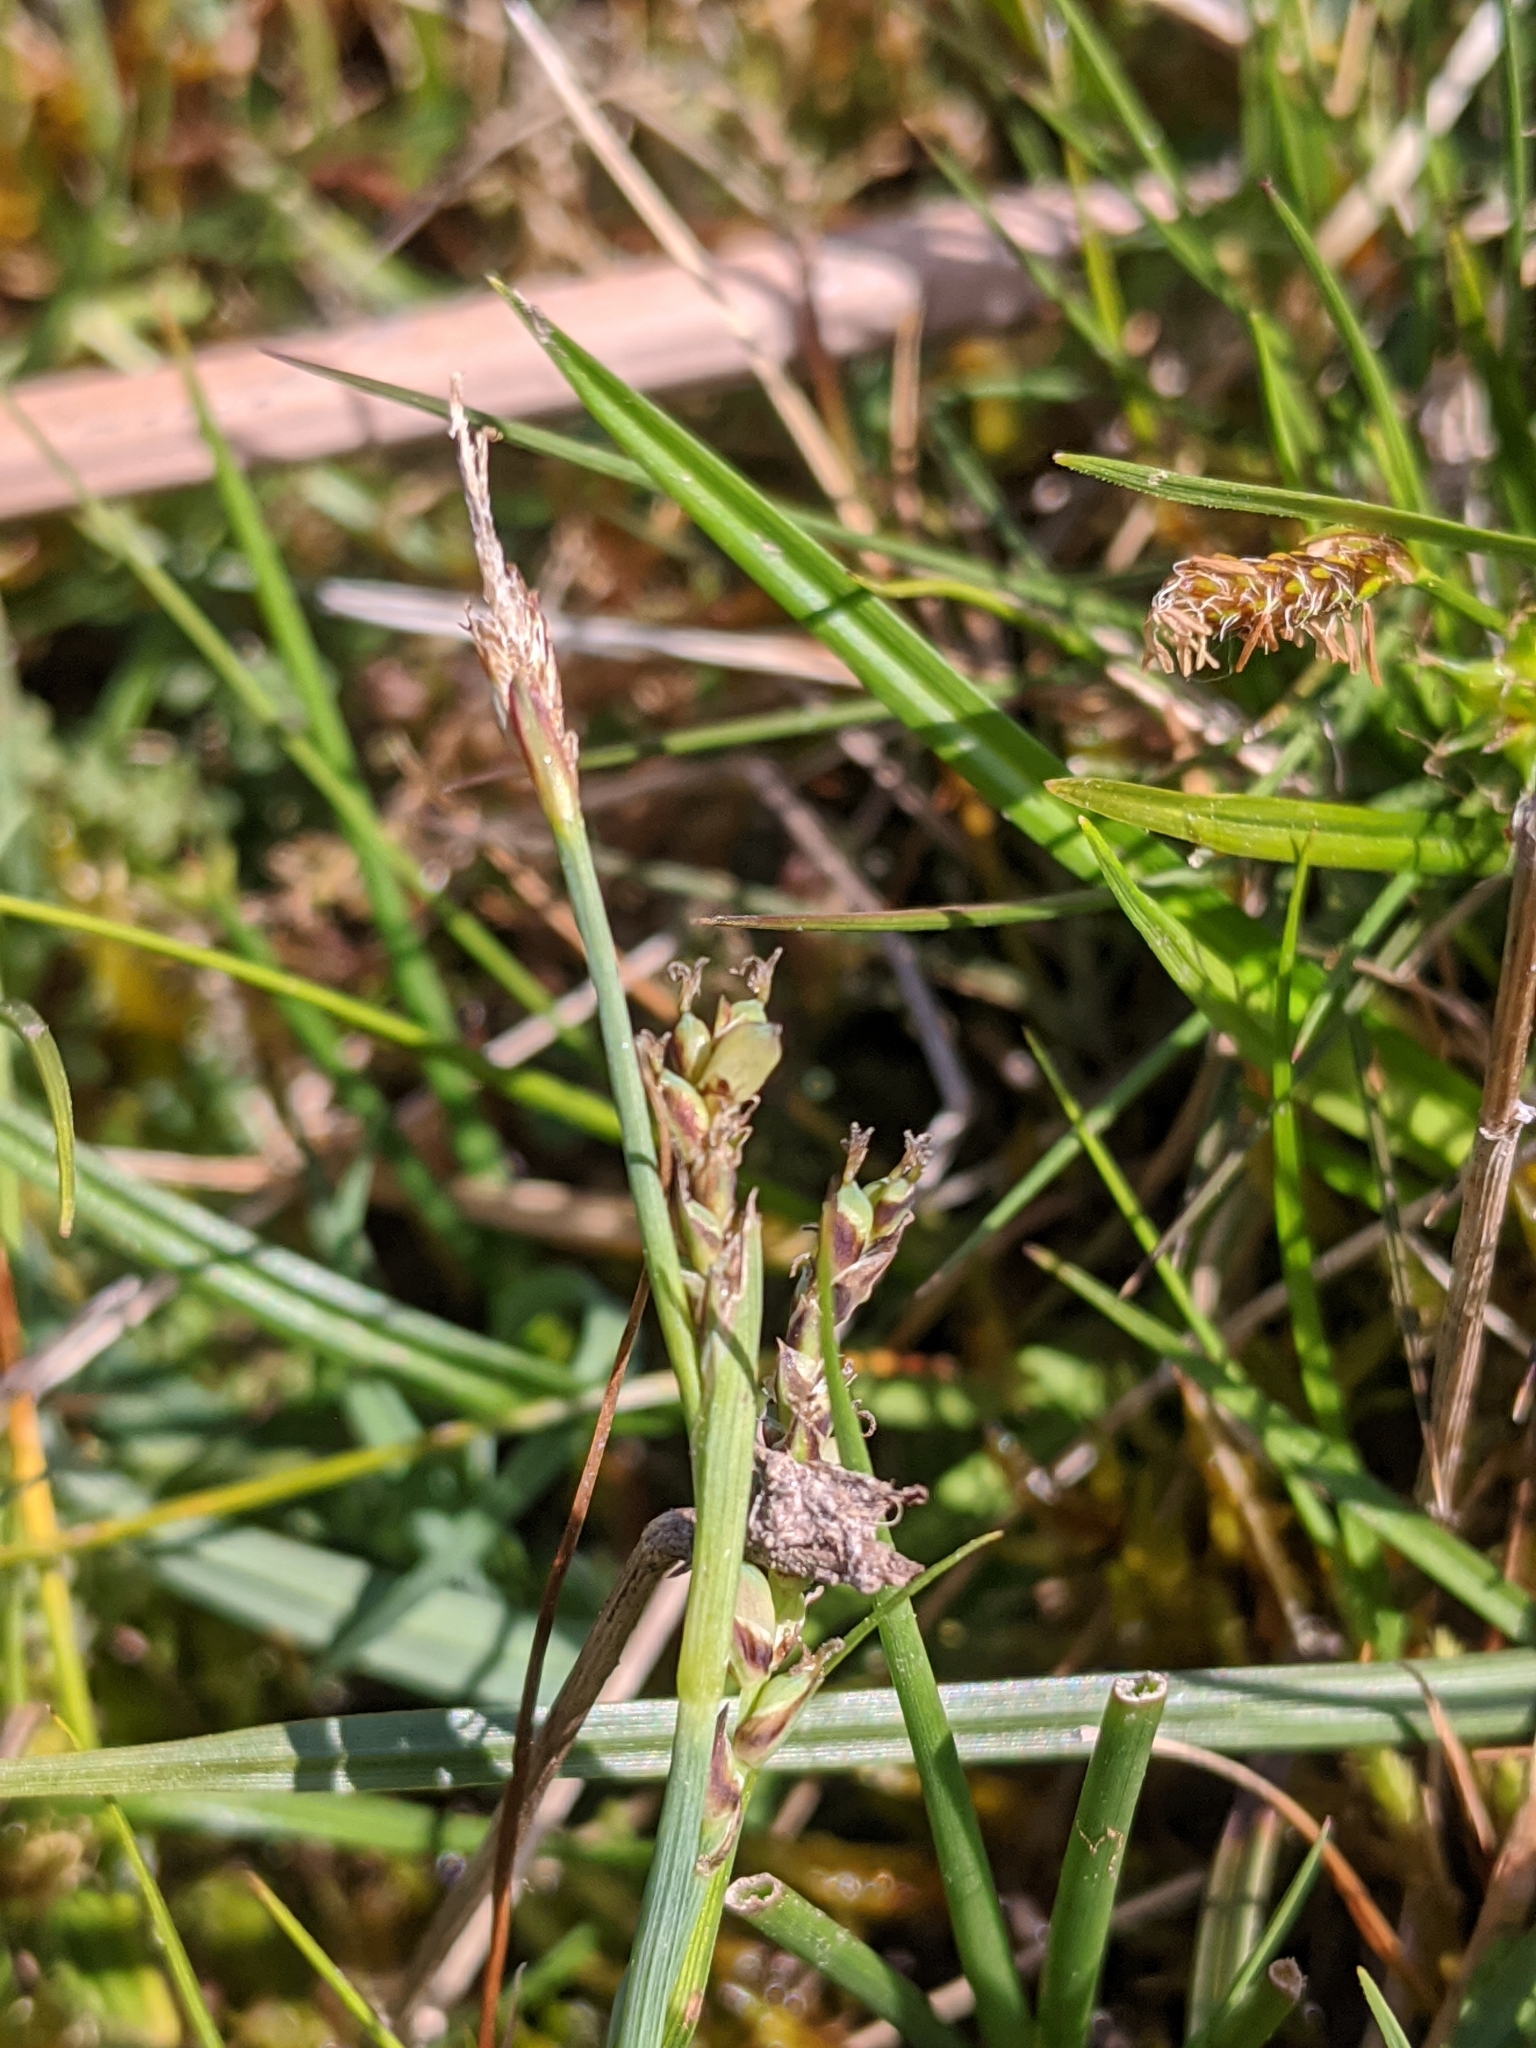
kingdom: Plantae
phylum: Tracheophyta
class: Liliopsida
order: Poales
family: Cyperaceae
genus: Carex
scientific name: Carex panicea
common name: Carnation sedge
